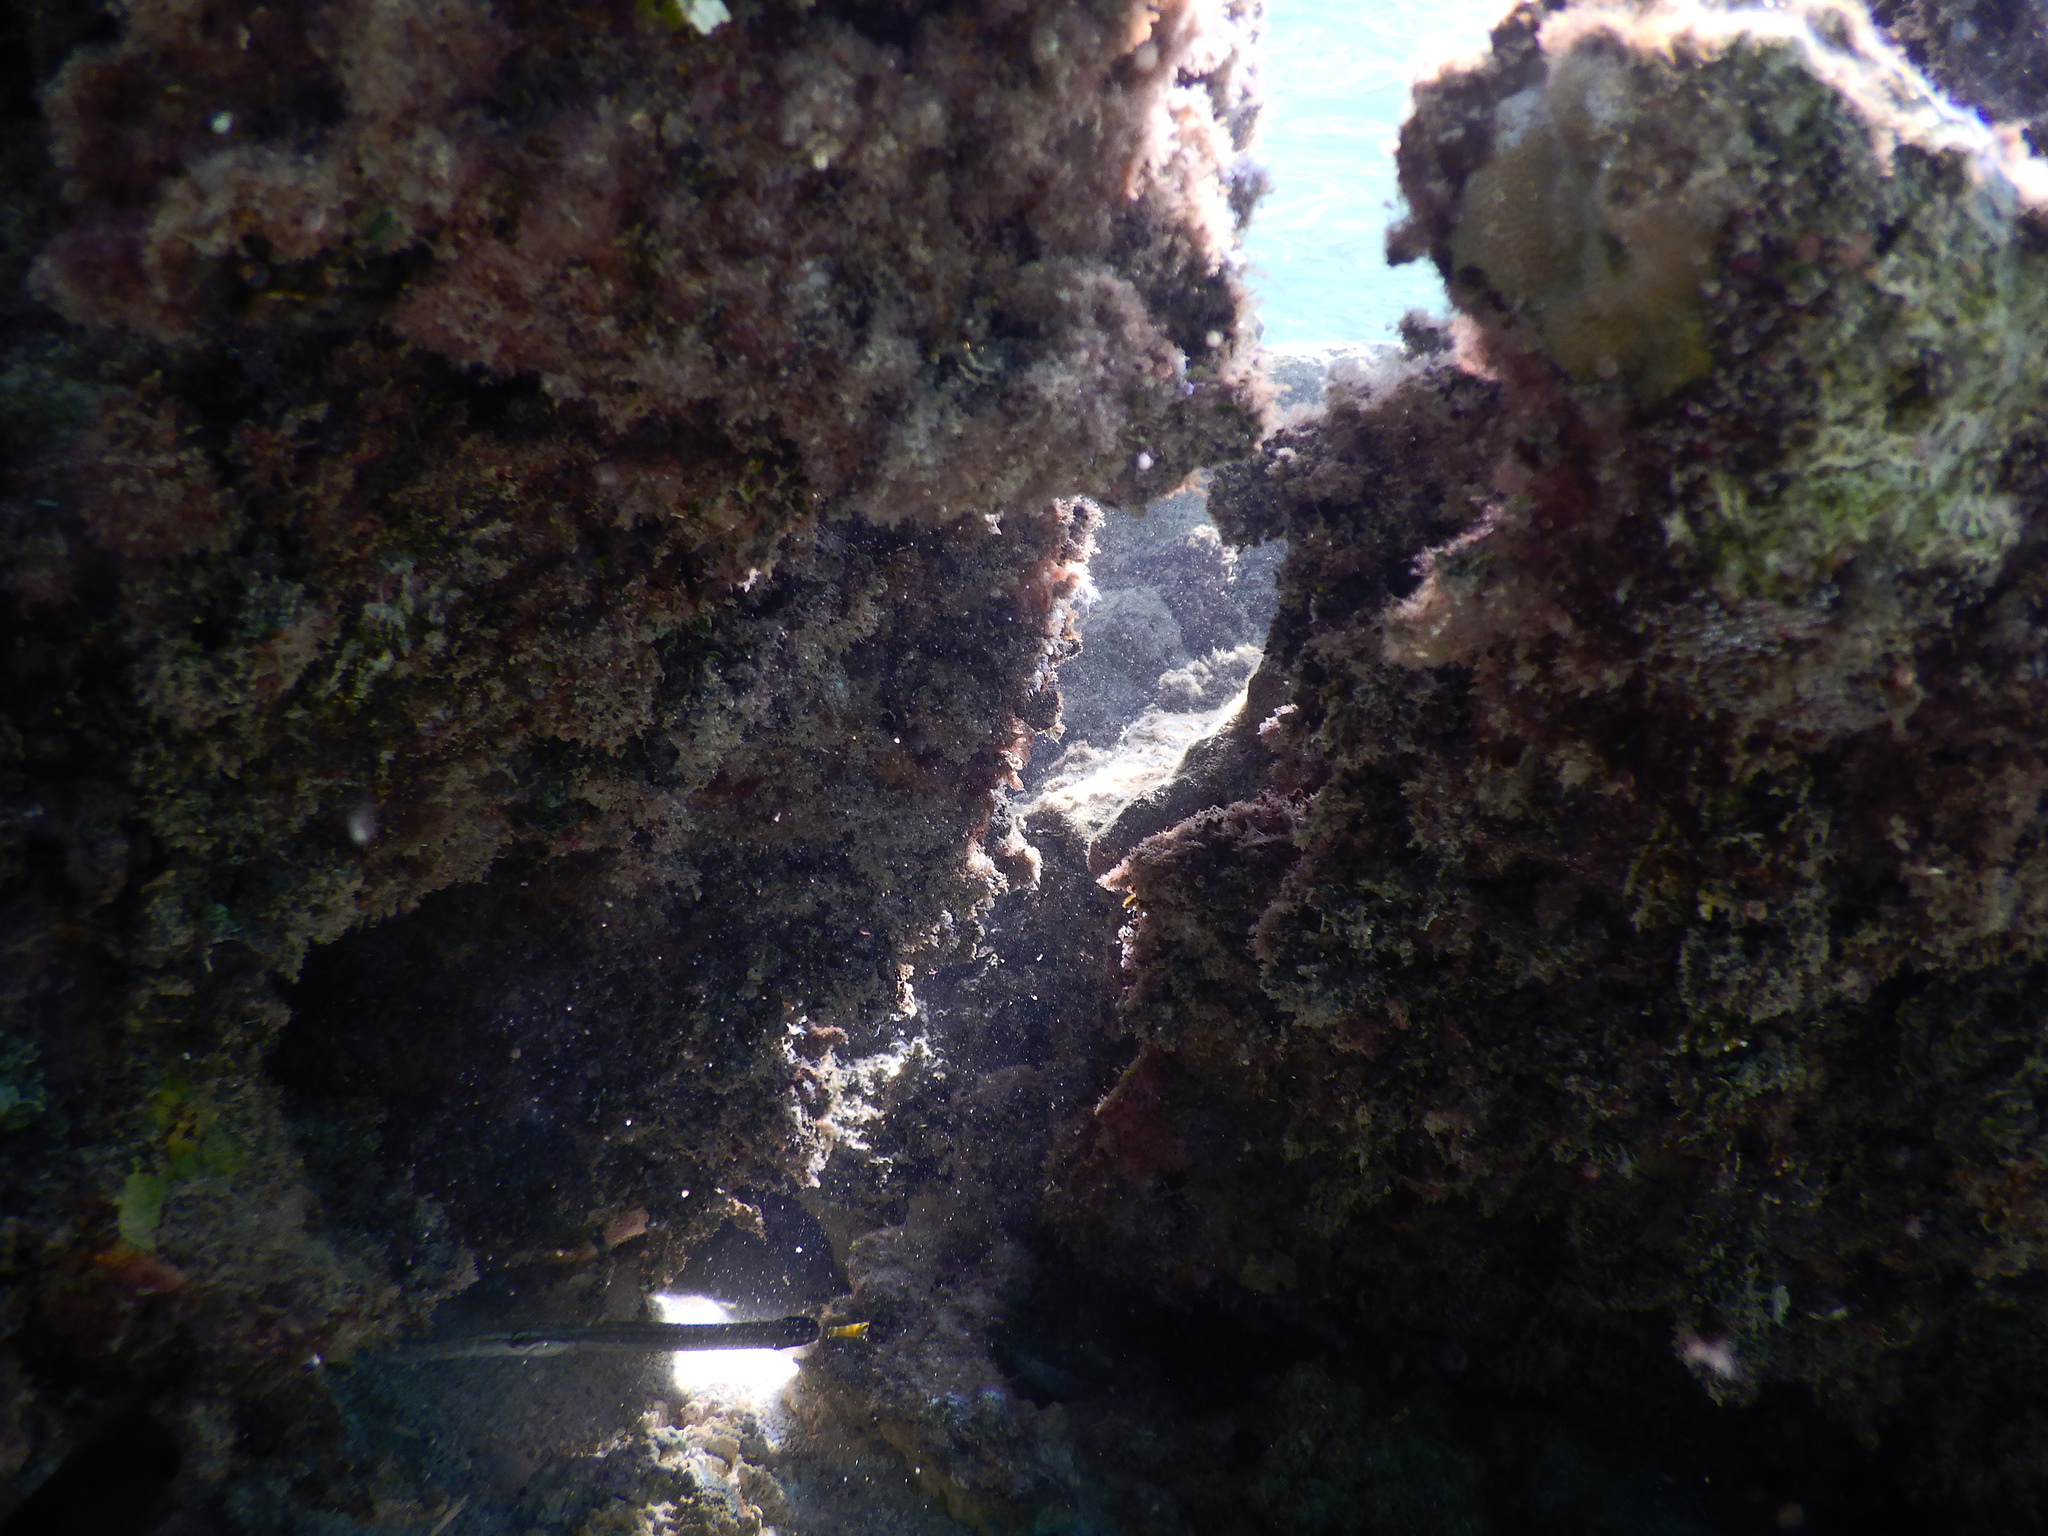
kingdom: Animalia
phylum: Chordata
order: Syngnathiformes
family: Aulostomidae
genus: Aulostomus
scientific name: Aulostomus chinensis
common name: Chinese trumpetfish
